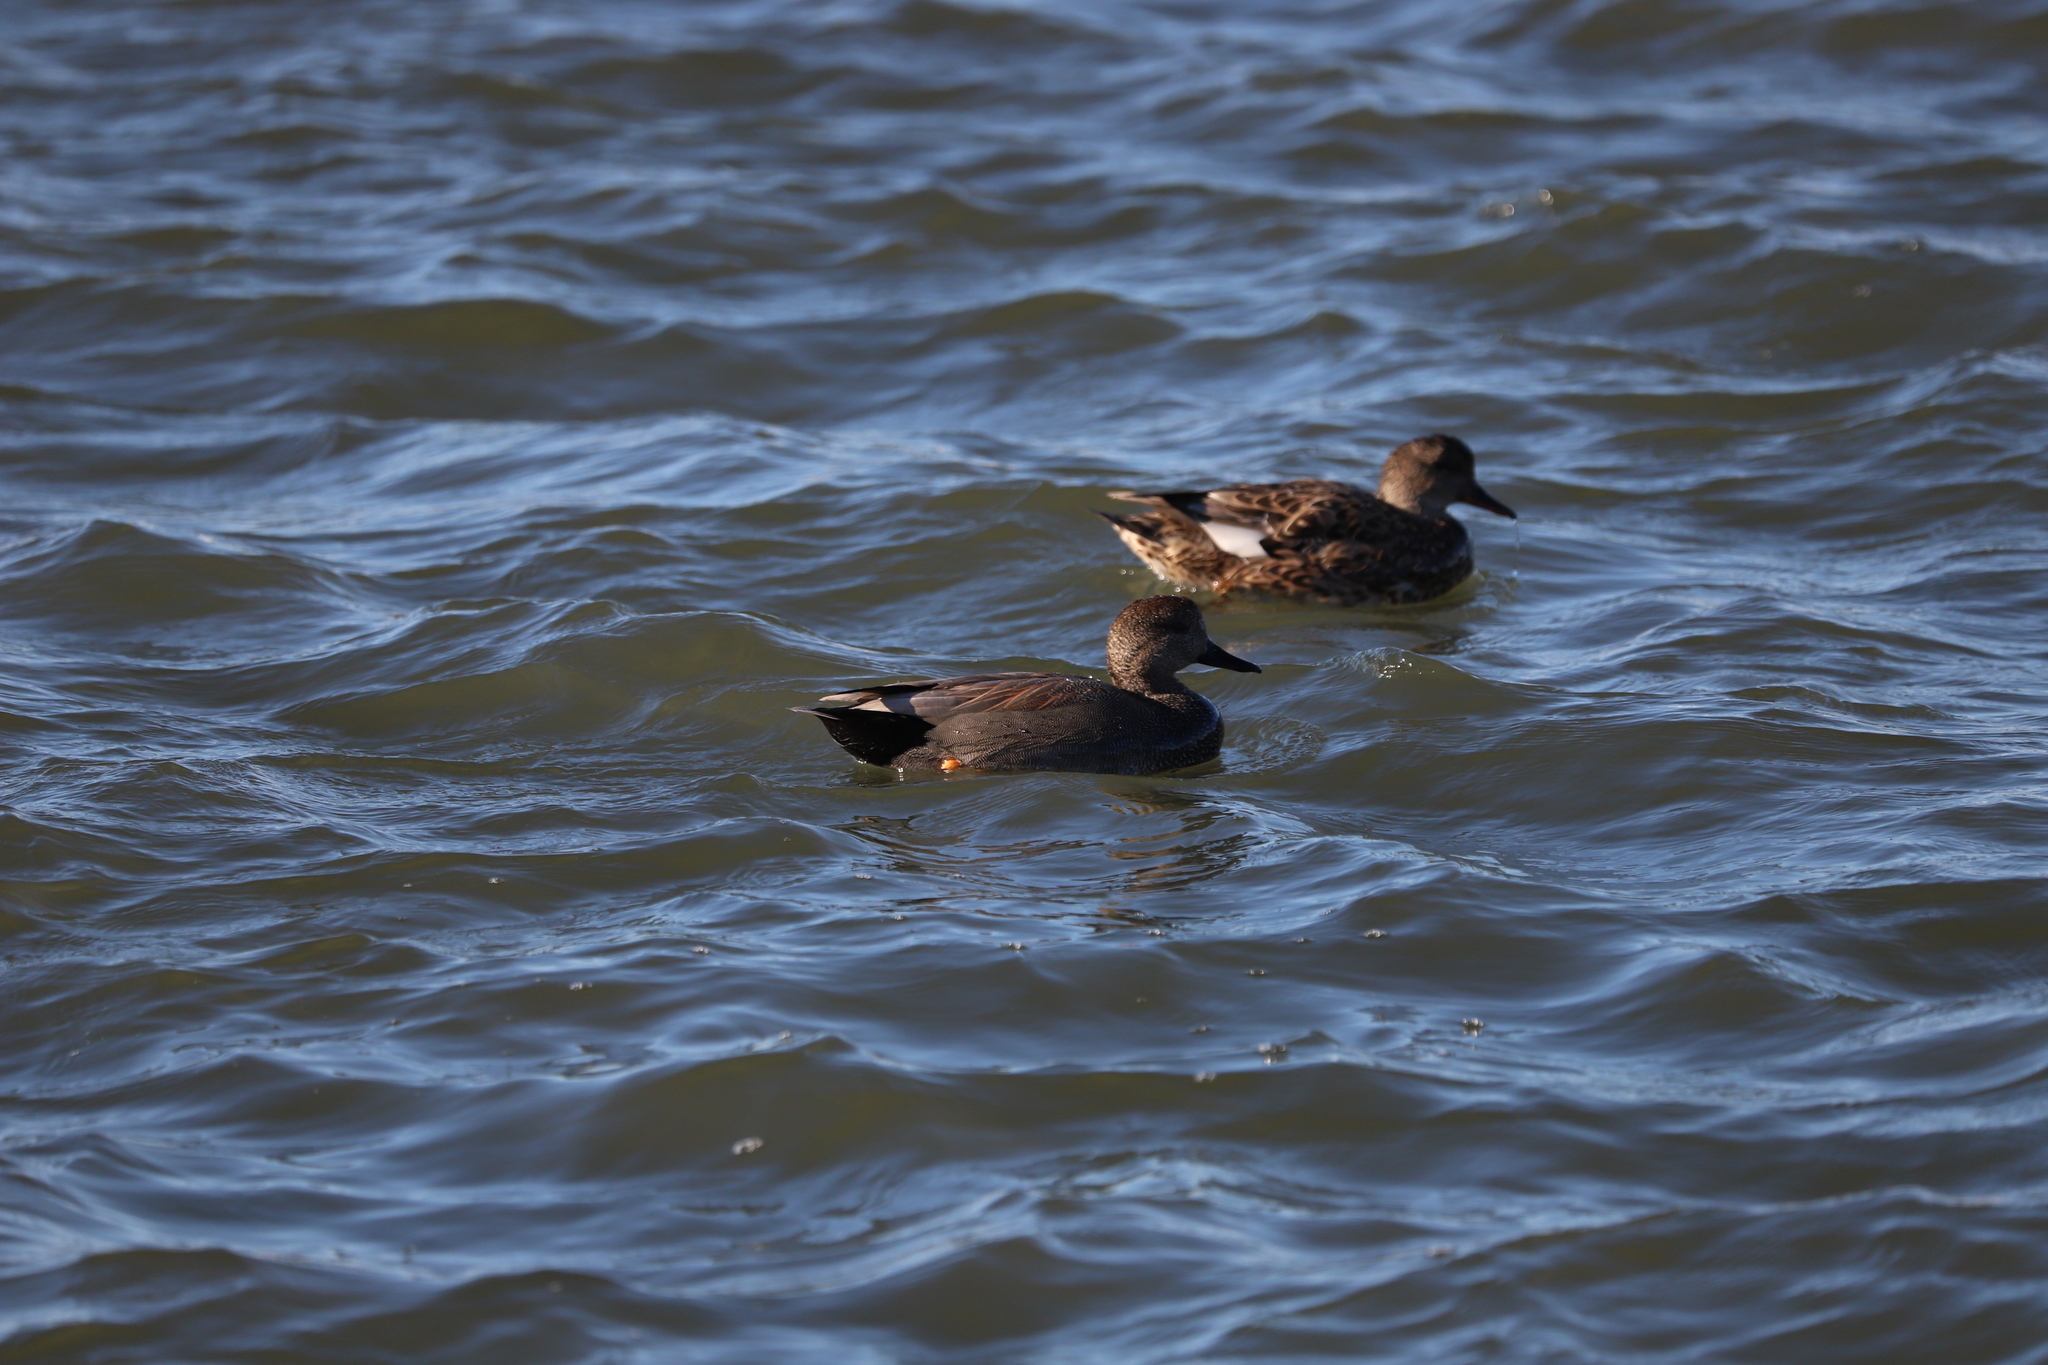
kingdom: Animalia
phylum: Chordata
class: Aves
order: Anseriformes
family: Anatidae
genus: Mareca
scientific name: Mareca strepera
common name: Gadwall
